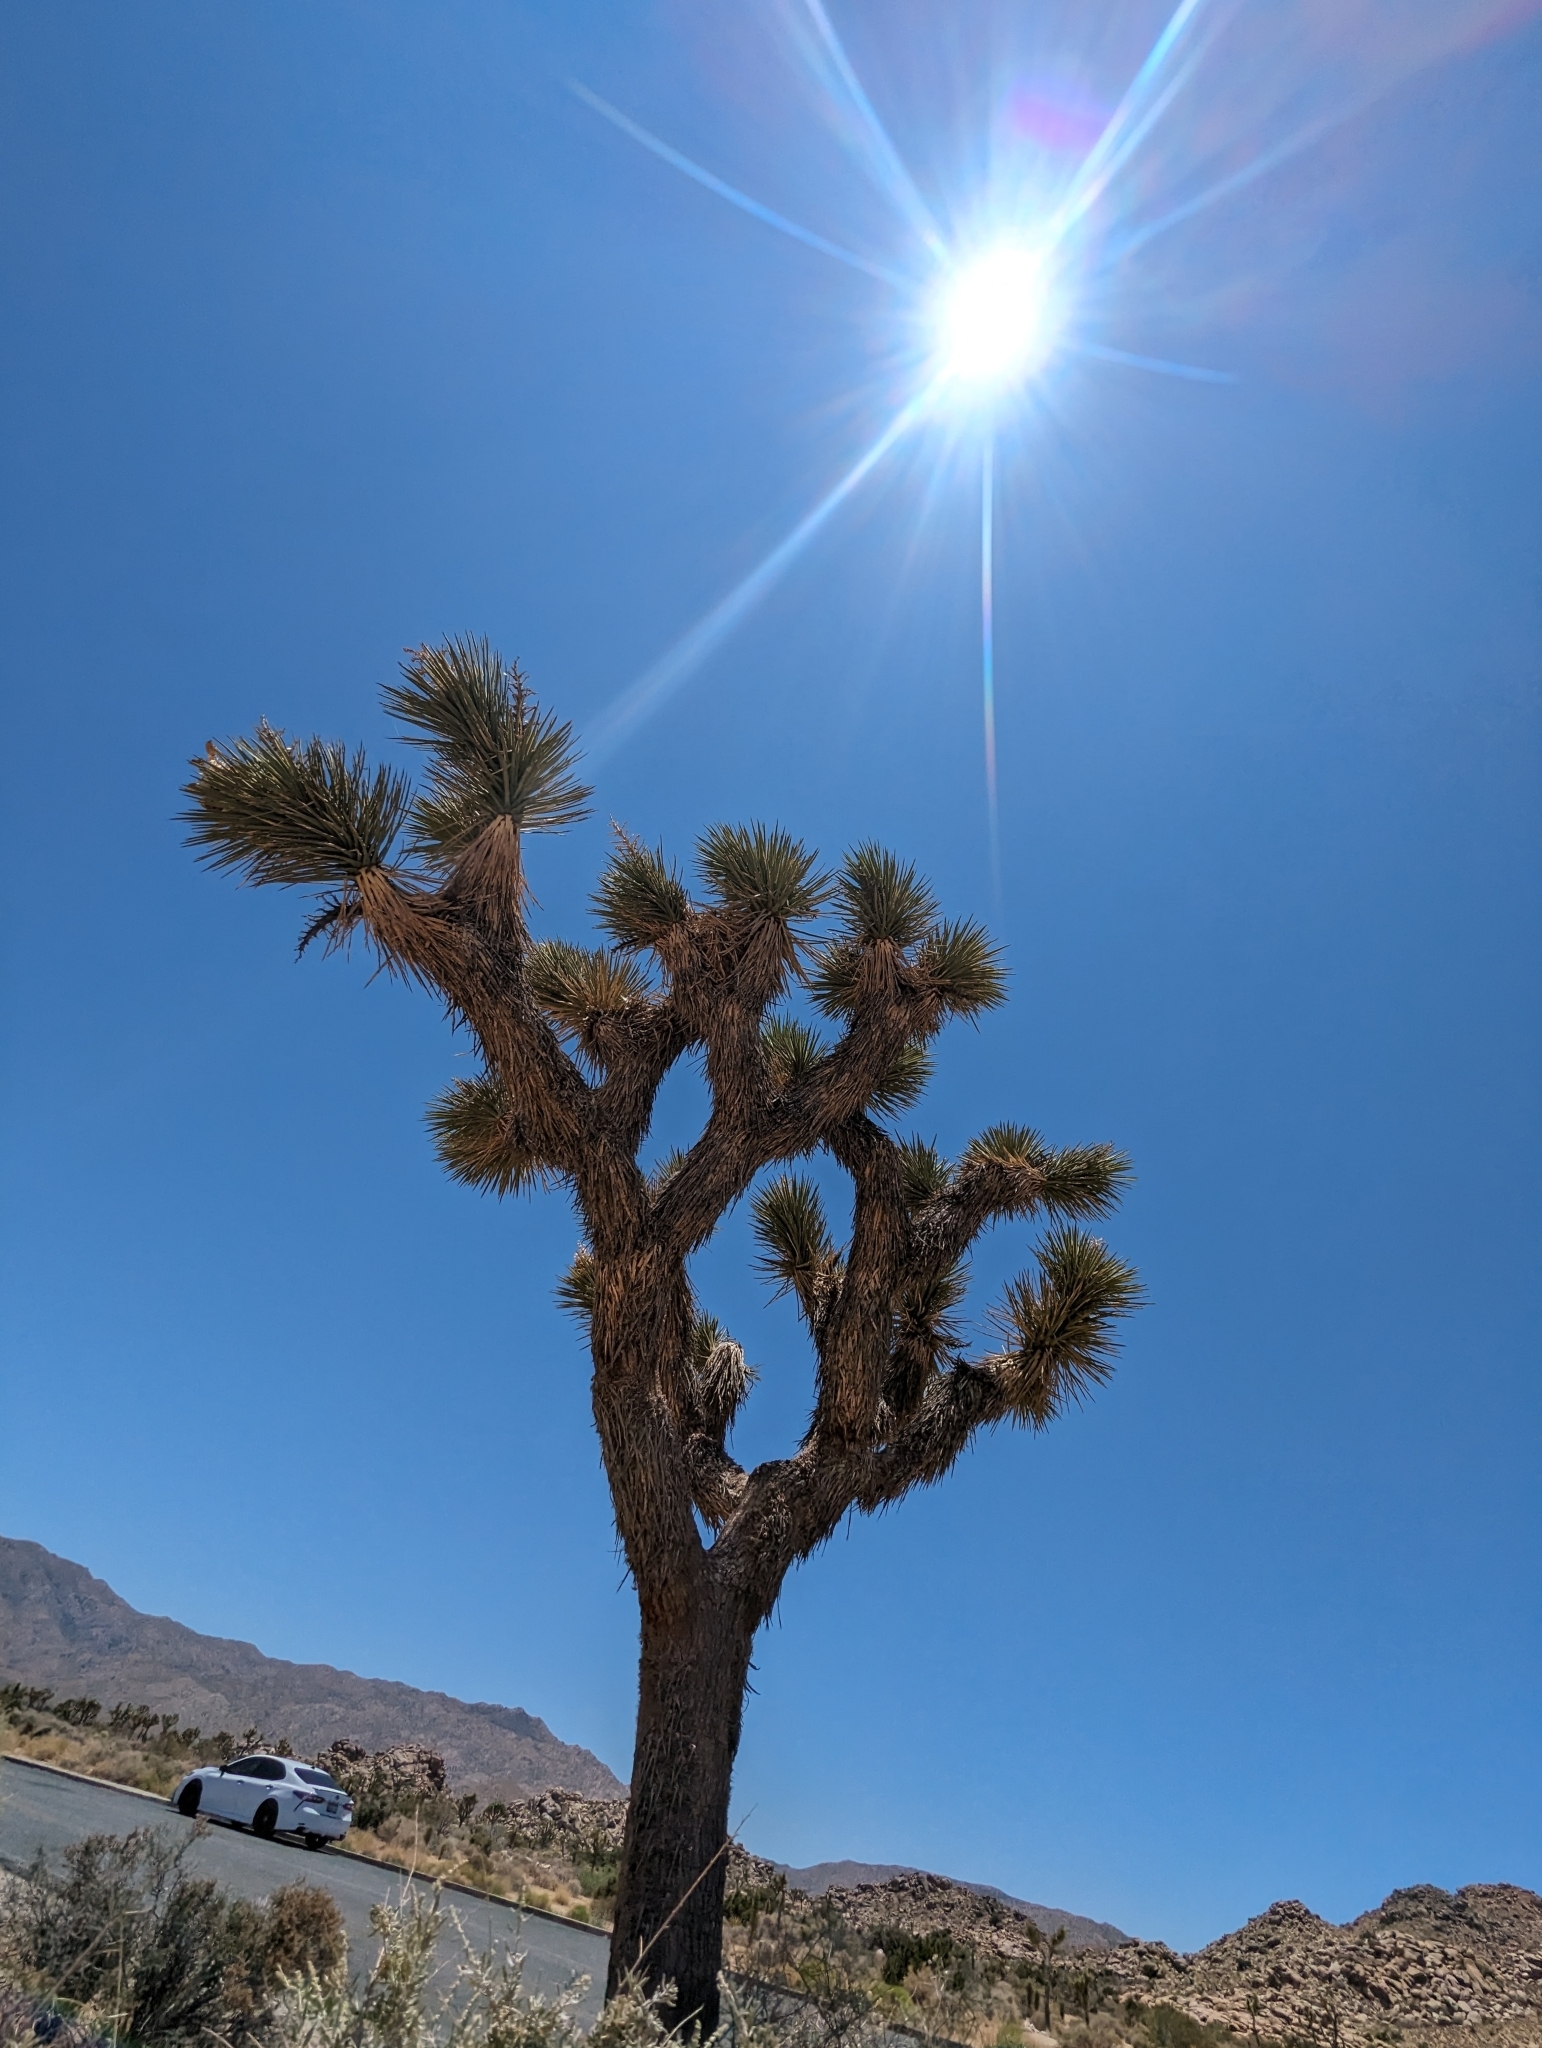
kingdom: Plantae
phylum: Tracheophyta
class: Liliopsida
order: Asparagales
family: Asparagaceae
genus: Yucca
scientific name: Yucca brevifolia
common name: Joshua tree
